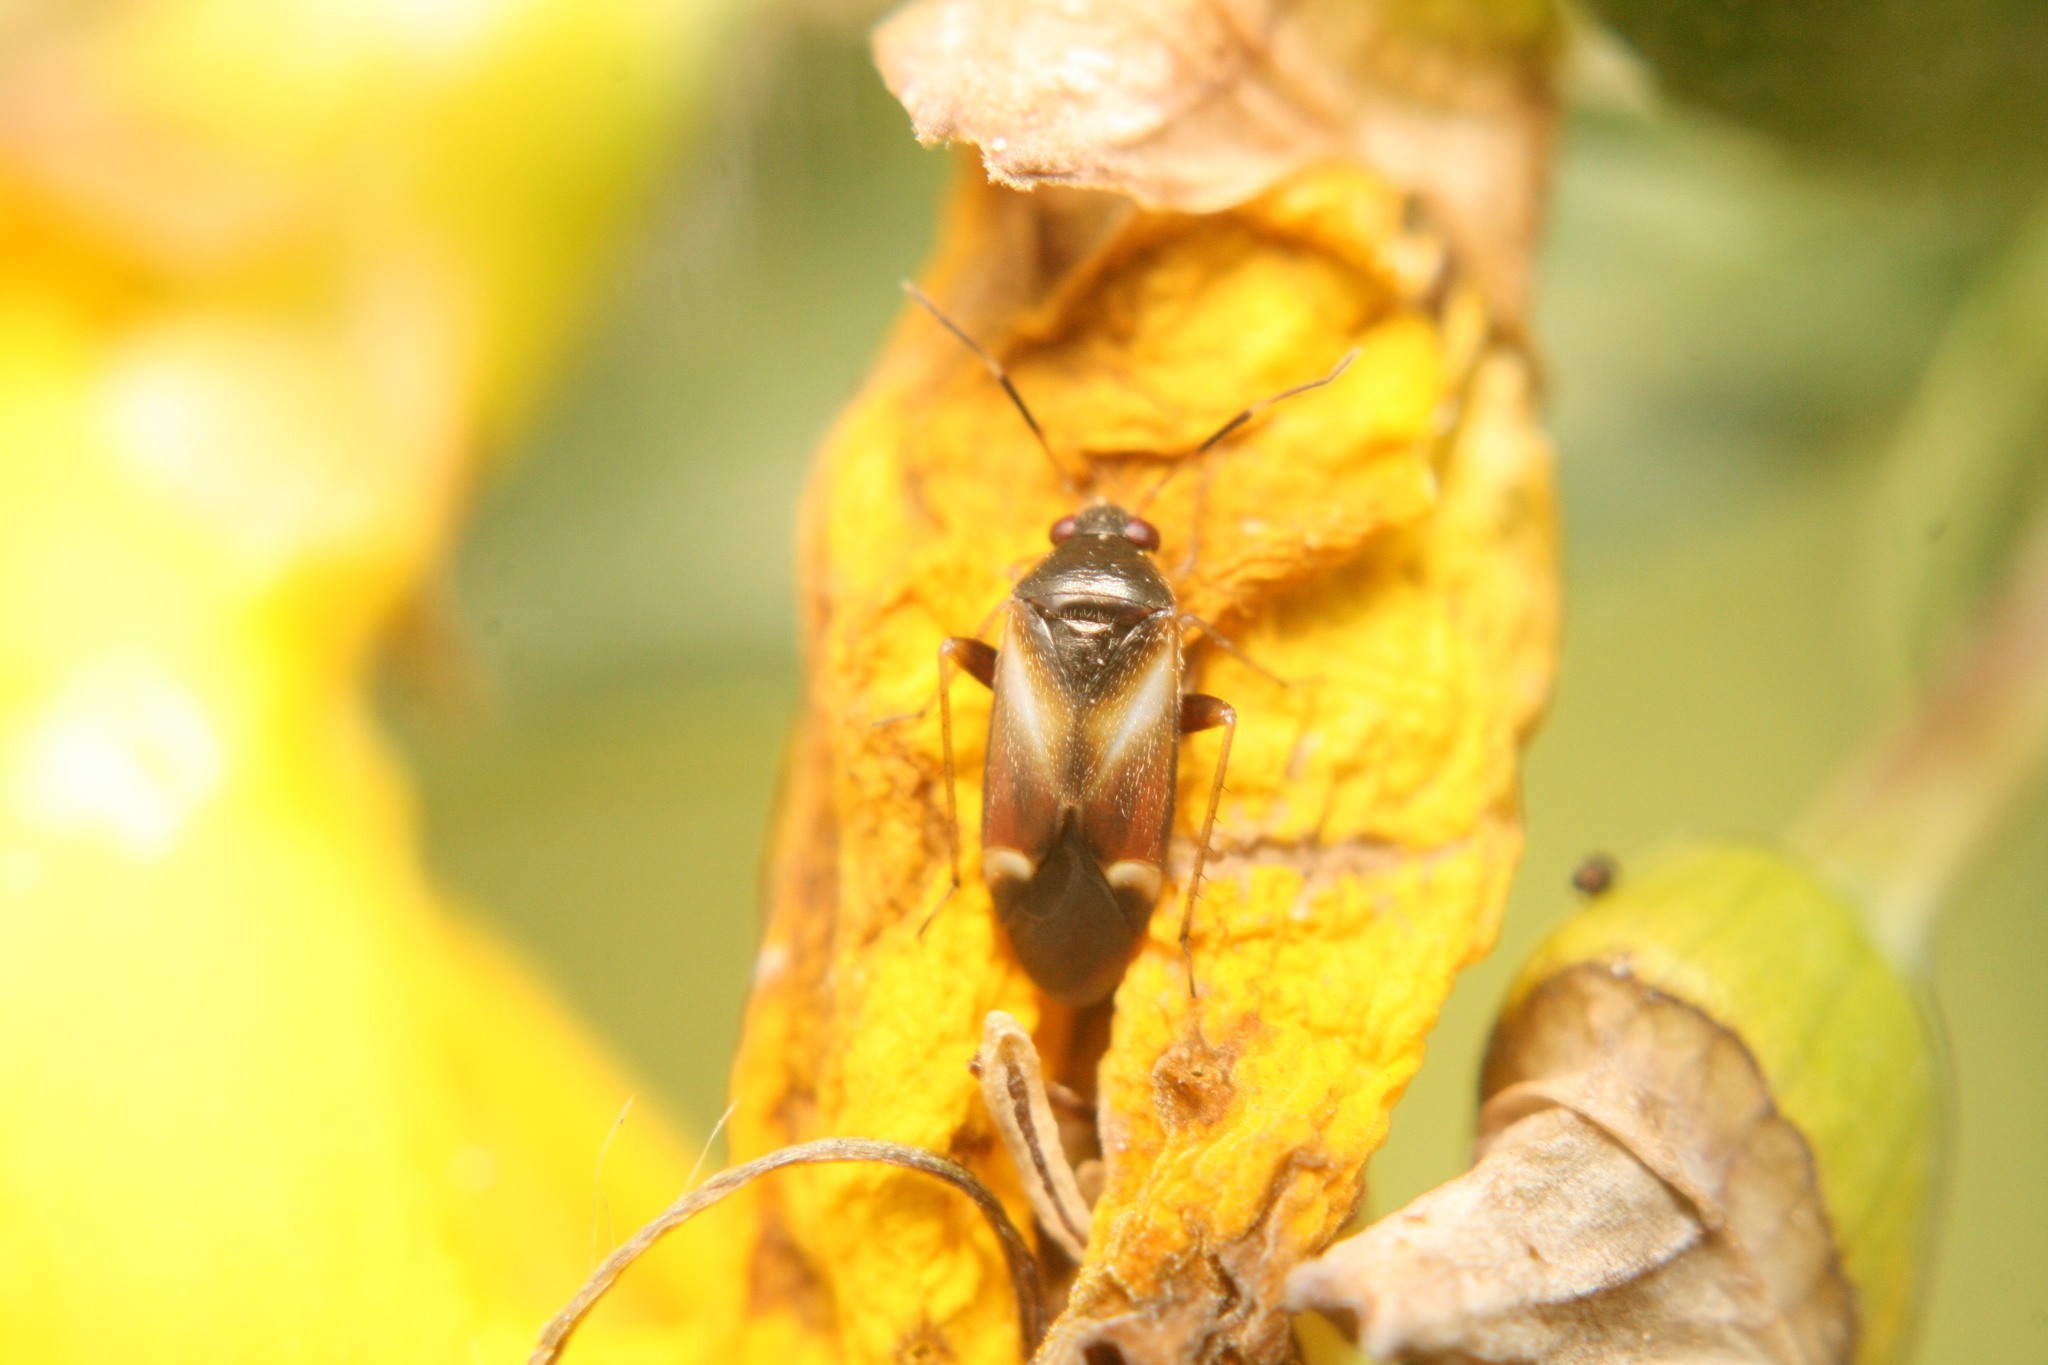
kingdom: Animalia
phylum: Arthropoda
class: Insecta
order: Hemiptera
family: Miridae
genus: Ausejanus
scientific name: Ausejanus albisignatus
